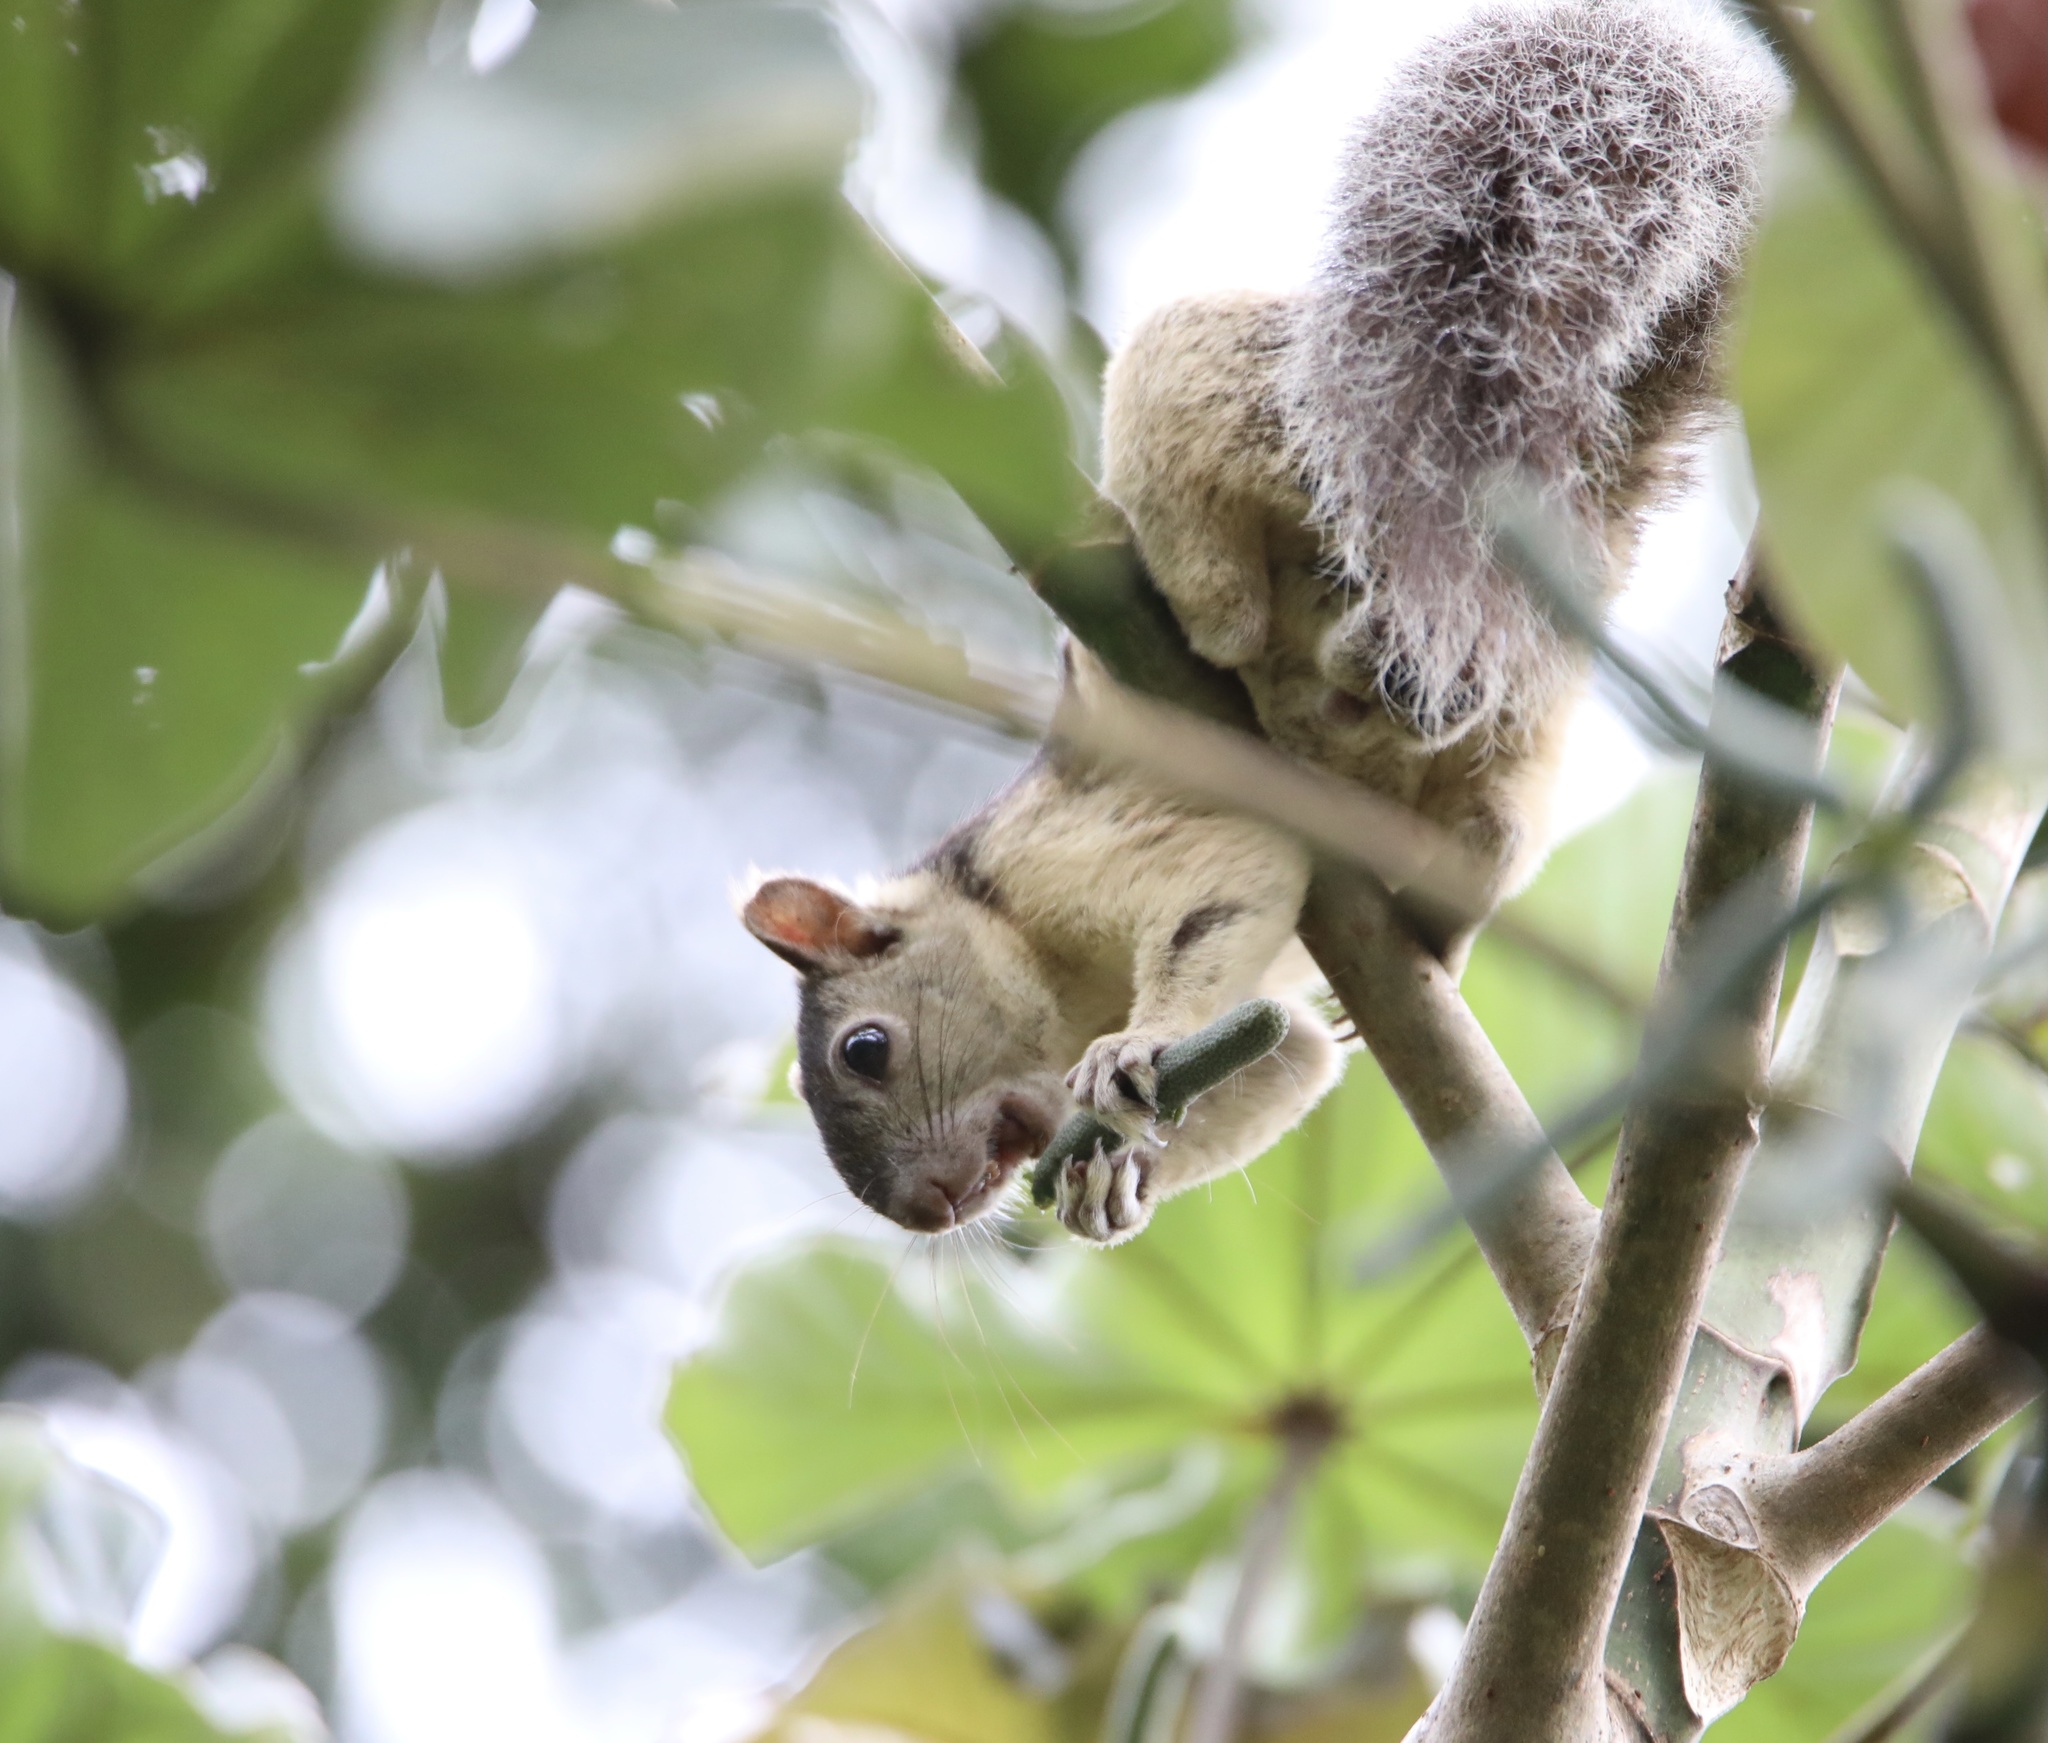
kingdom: Animalia
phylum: Chordata
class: Mammalia
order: Rodentia
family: Sciuridae
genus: Sciurus
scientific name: Sciurus variegatoides
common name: Variegated squirrel
